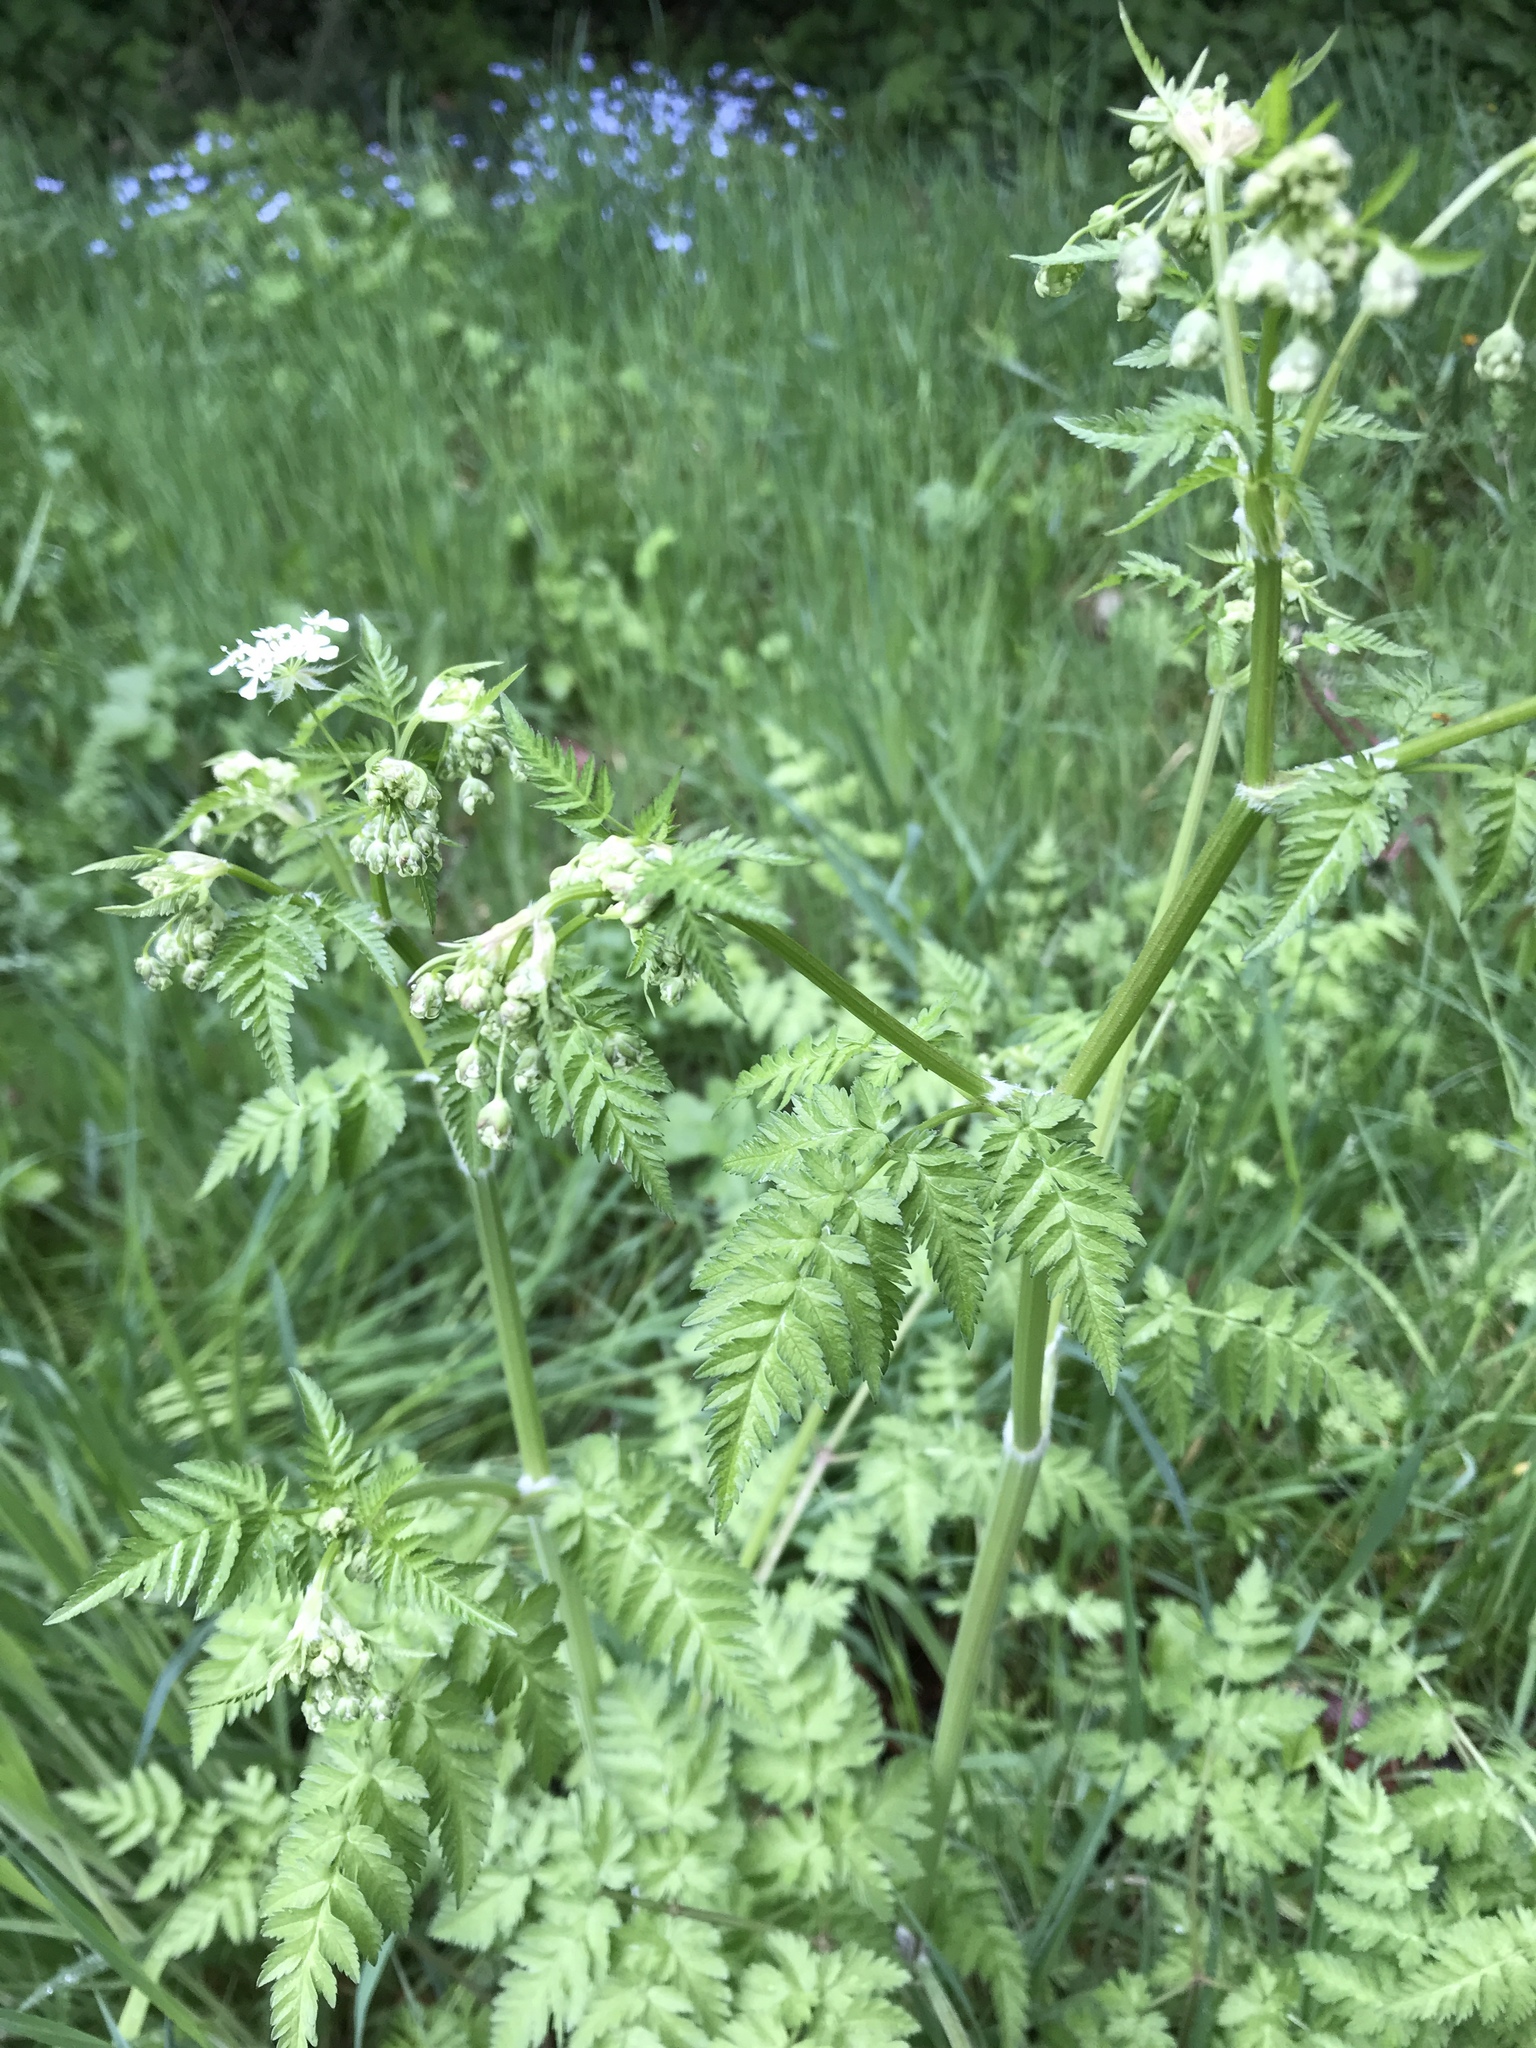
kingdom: Plantae
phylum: Tracheophyta
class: Magnoliopsida
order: Apiales
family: Apiaceae
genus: Anthriscus
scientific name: Anthriscus sylvestris
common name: Cow parsley
